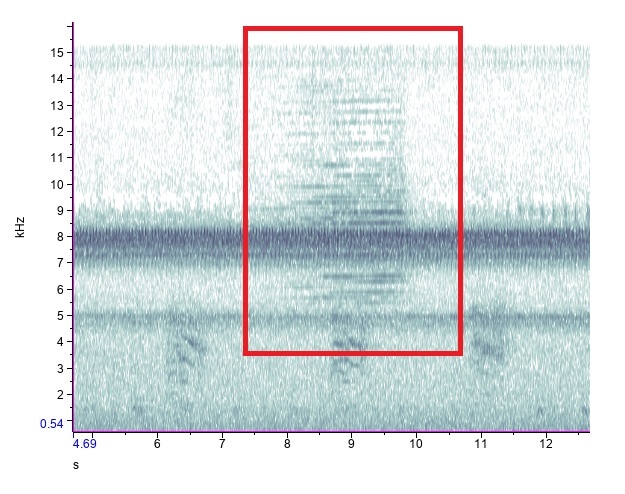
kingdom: Animalia
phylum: Arthropoda
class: Insecta
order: Hemiptera
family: Cicadidae
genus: Neotibicen
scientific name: Neotibicen canicularis
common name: God-day cicada
